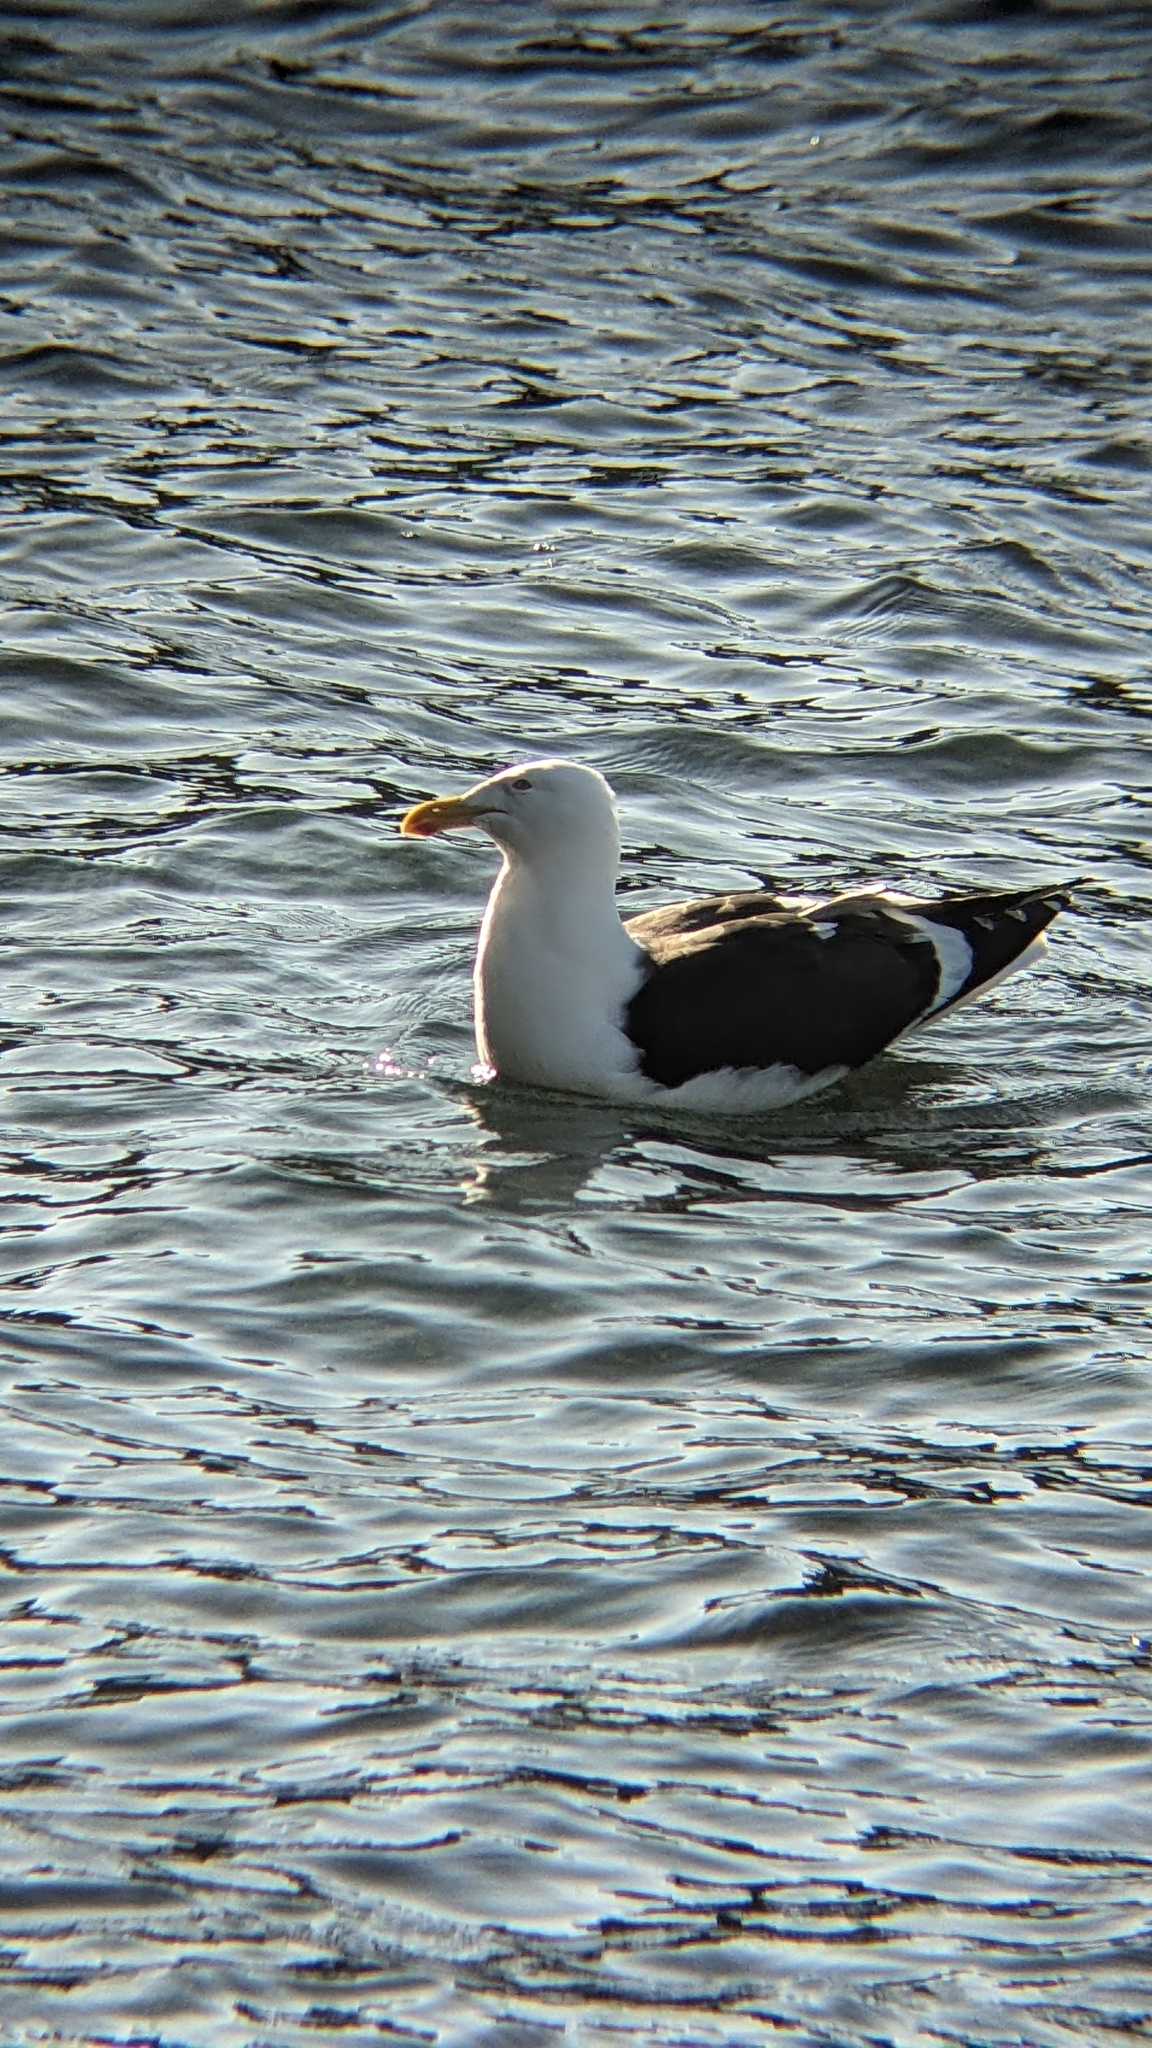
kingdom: Animalia
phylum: Chordata
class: Aves
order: Charadriiformes
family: Laridae
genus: Larus
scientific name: Larus dominicanus
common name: Kelp gull
